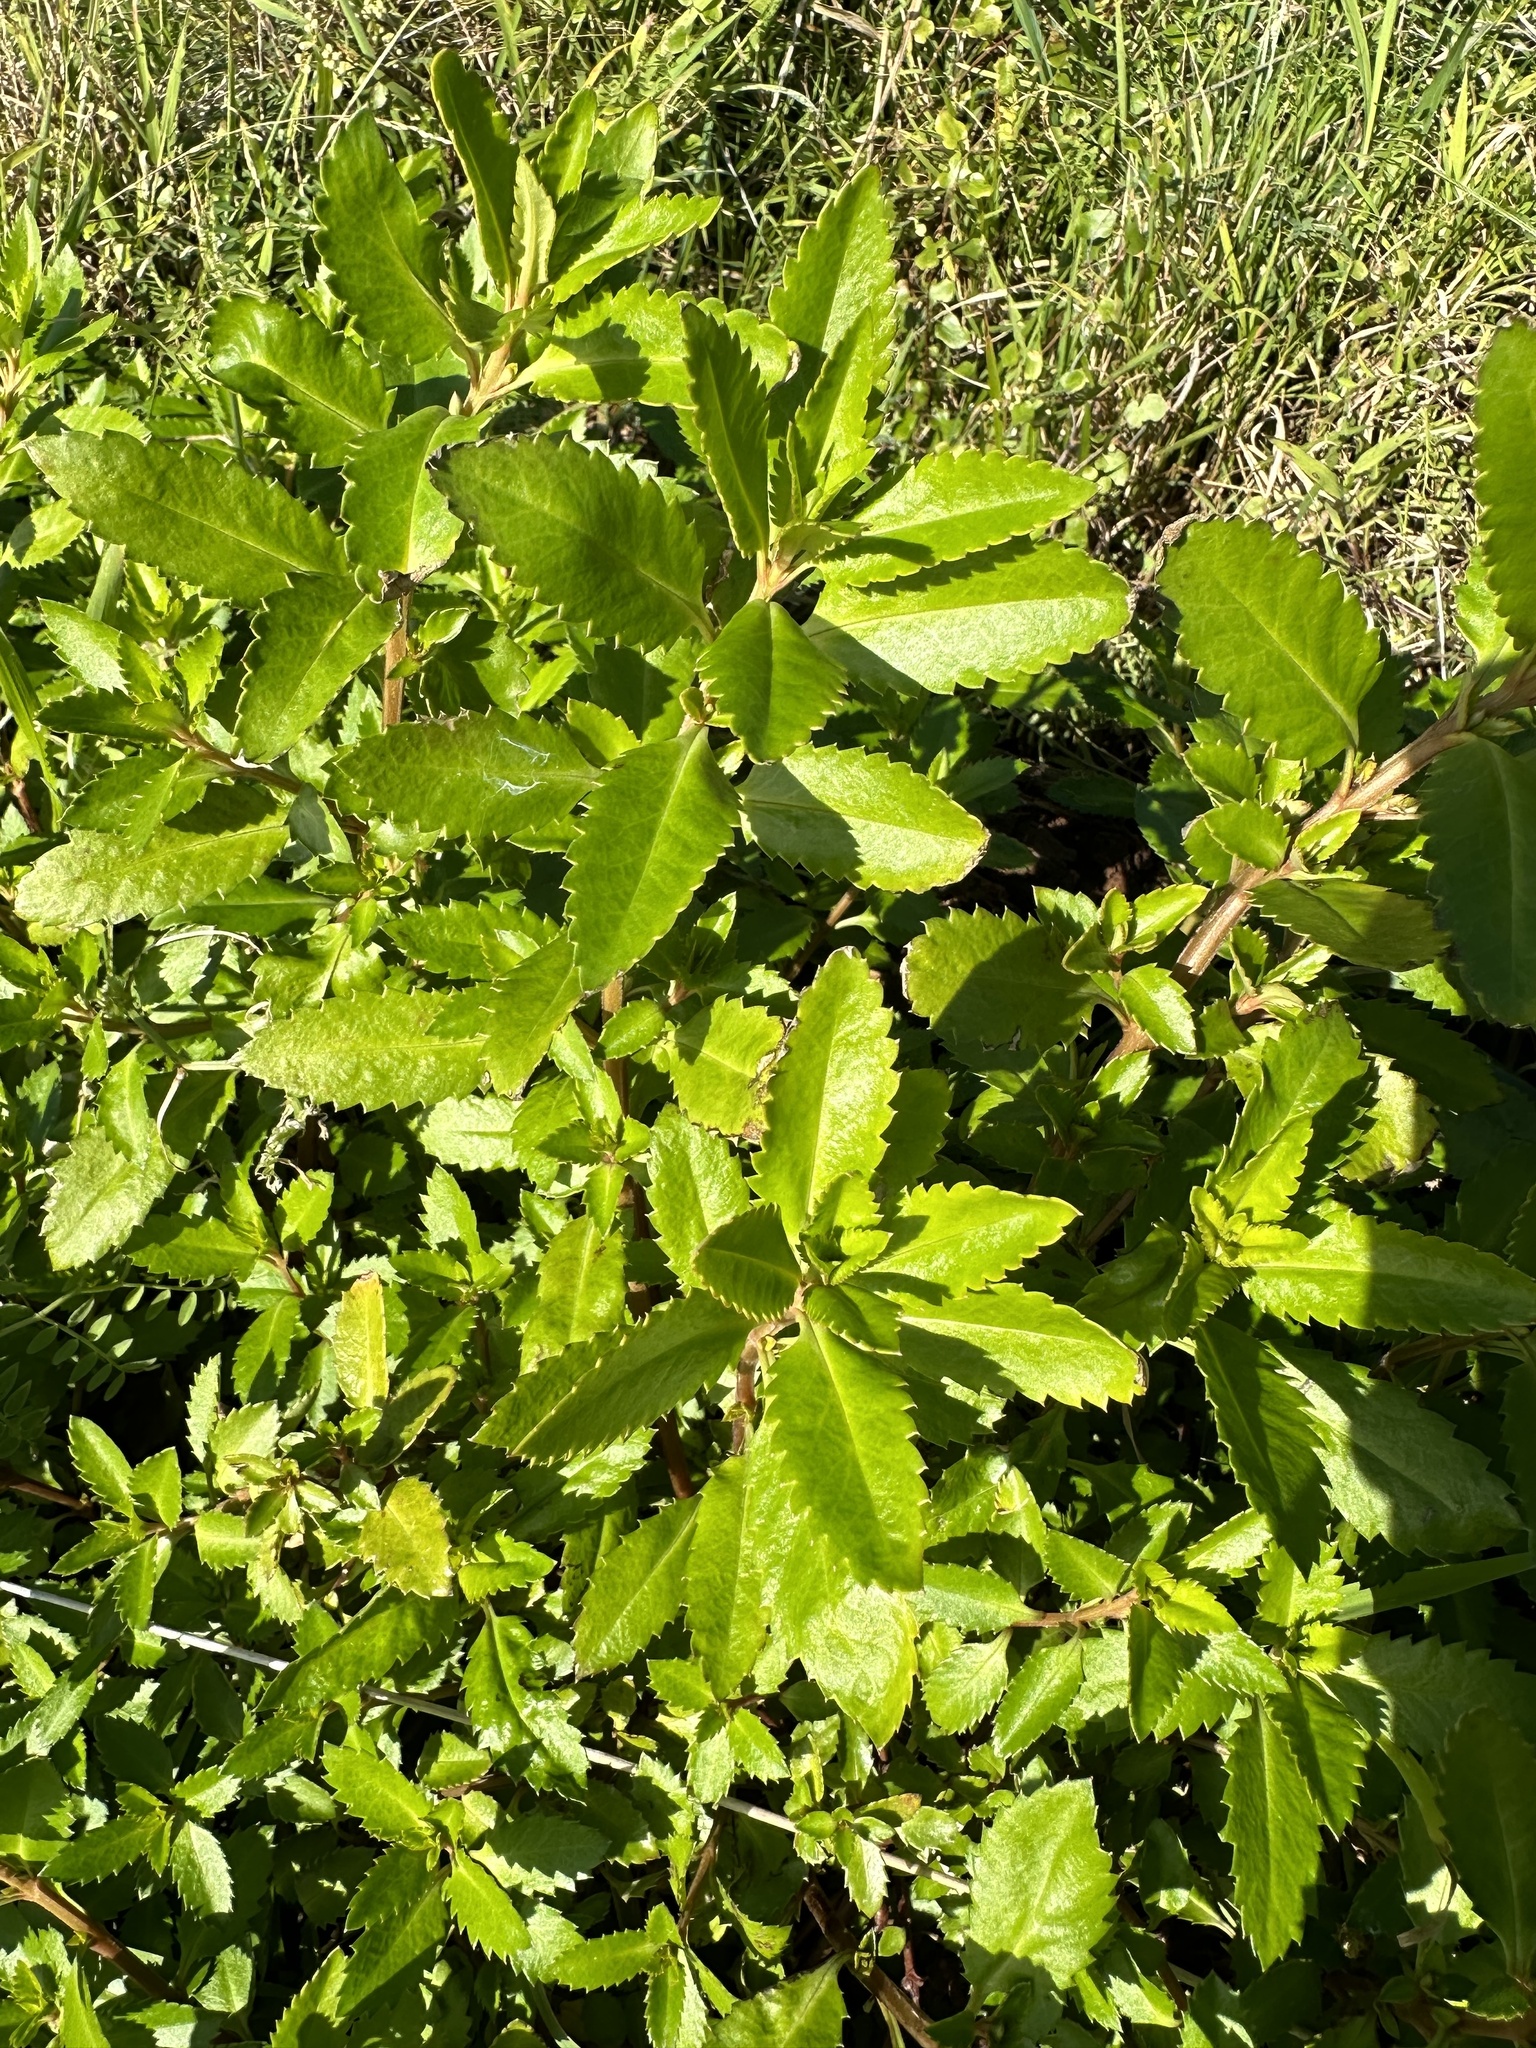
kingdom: Plantae
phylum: Tracheophyta
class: Magnoliopsida
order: Saxifragales
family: Haloragaceae
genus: Haloragis
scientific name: Haloragis erecta
